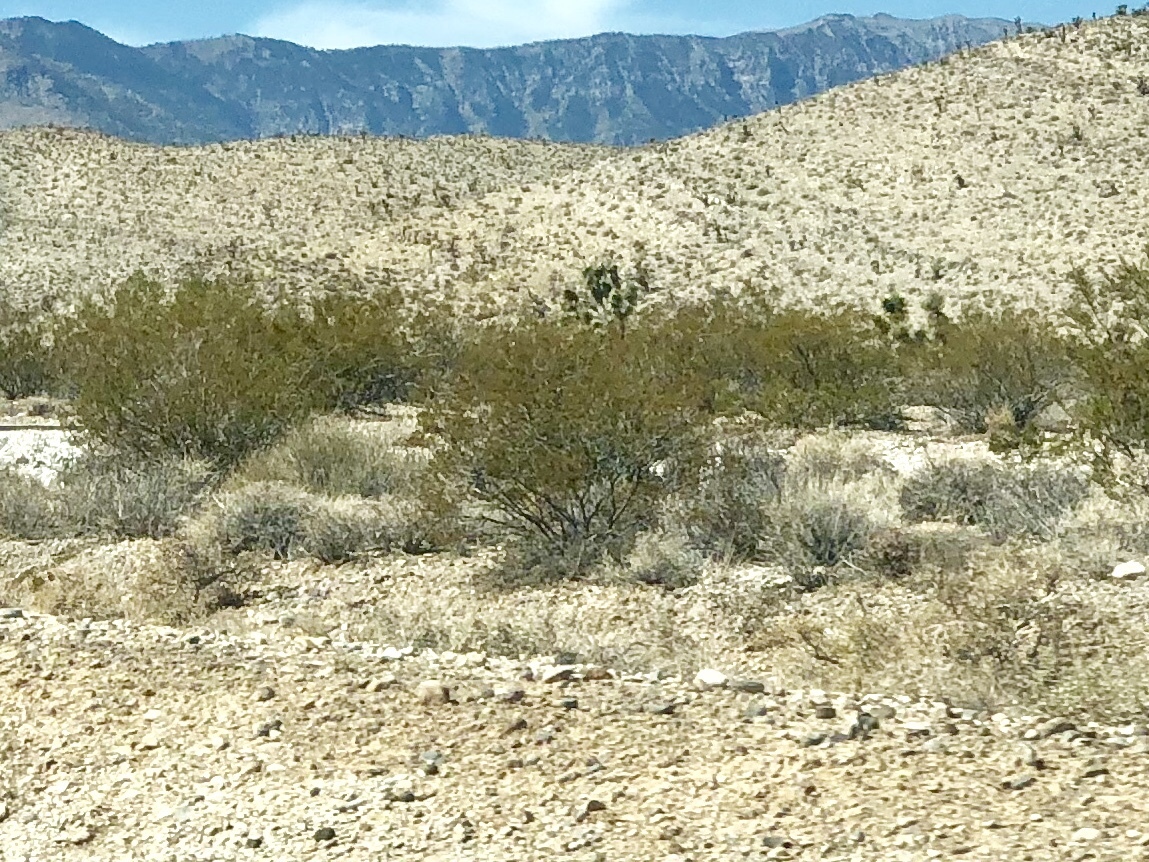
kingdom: Plantae
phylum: Tracheophyta
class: Magnoliopsida
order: Zygophyllales
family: Zygophyllaceae
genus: Larrea
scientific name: Larrea tridentata
